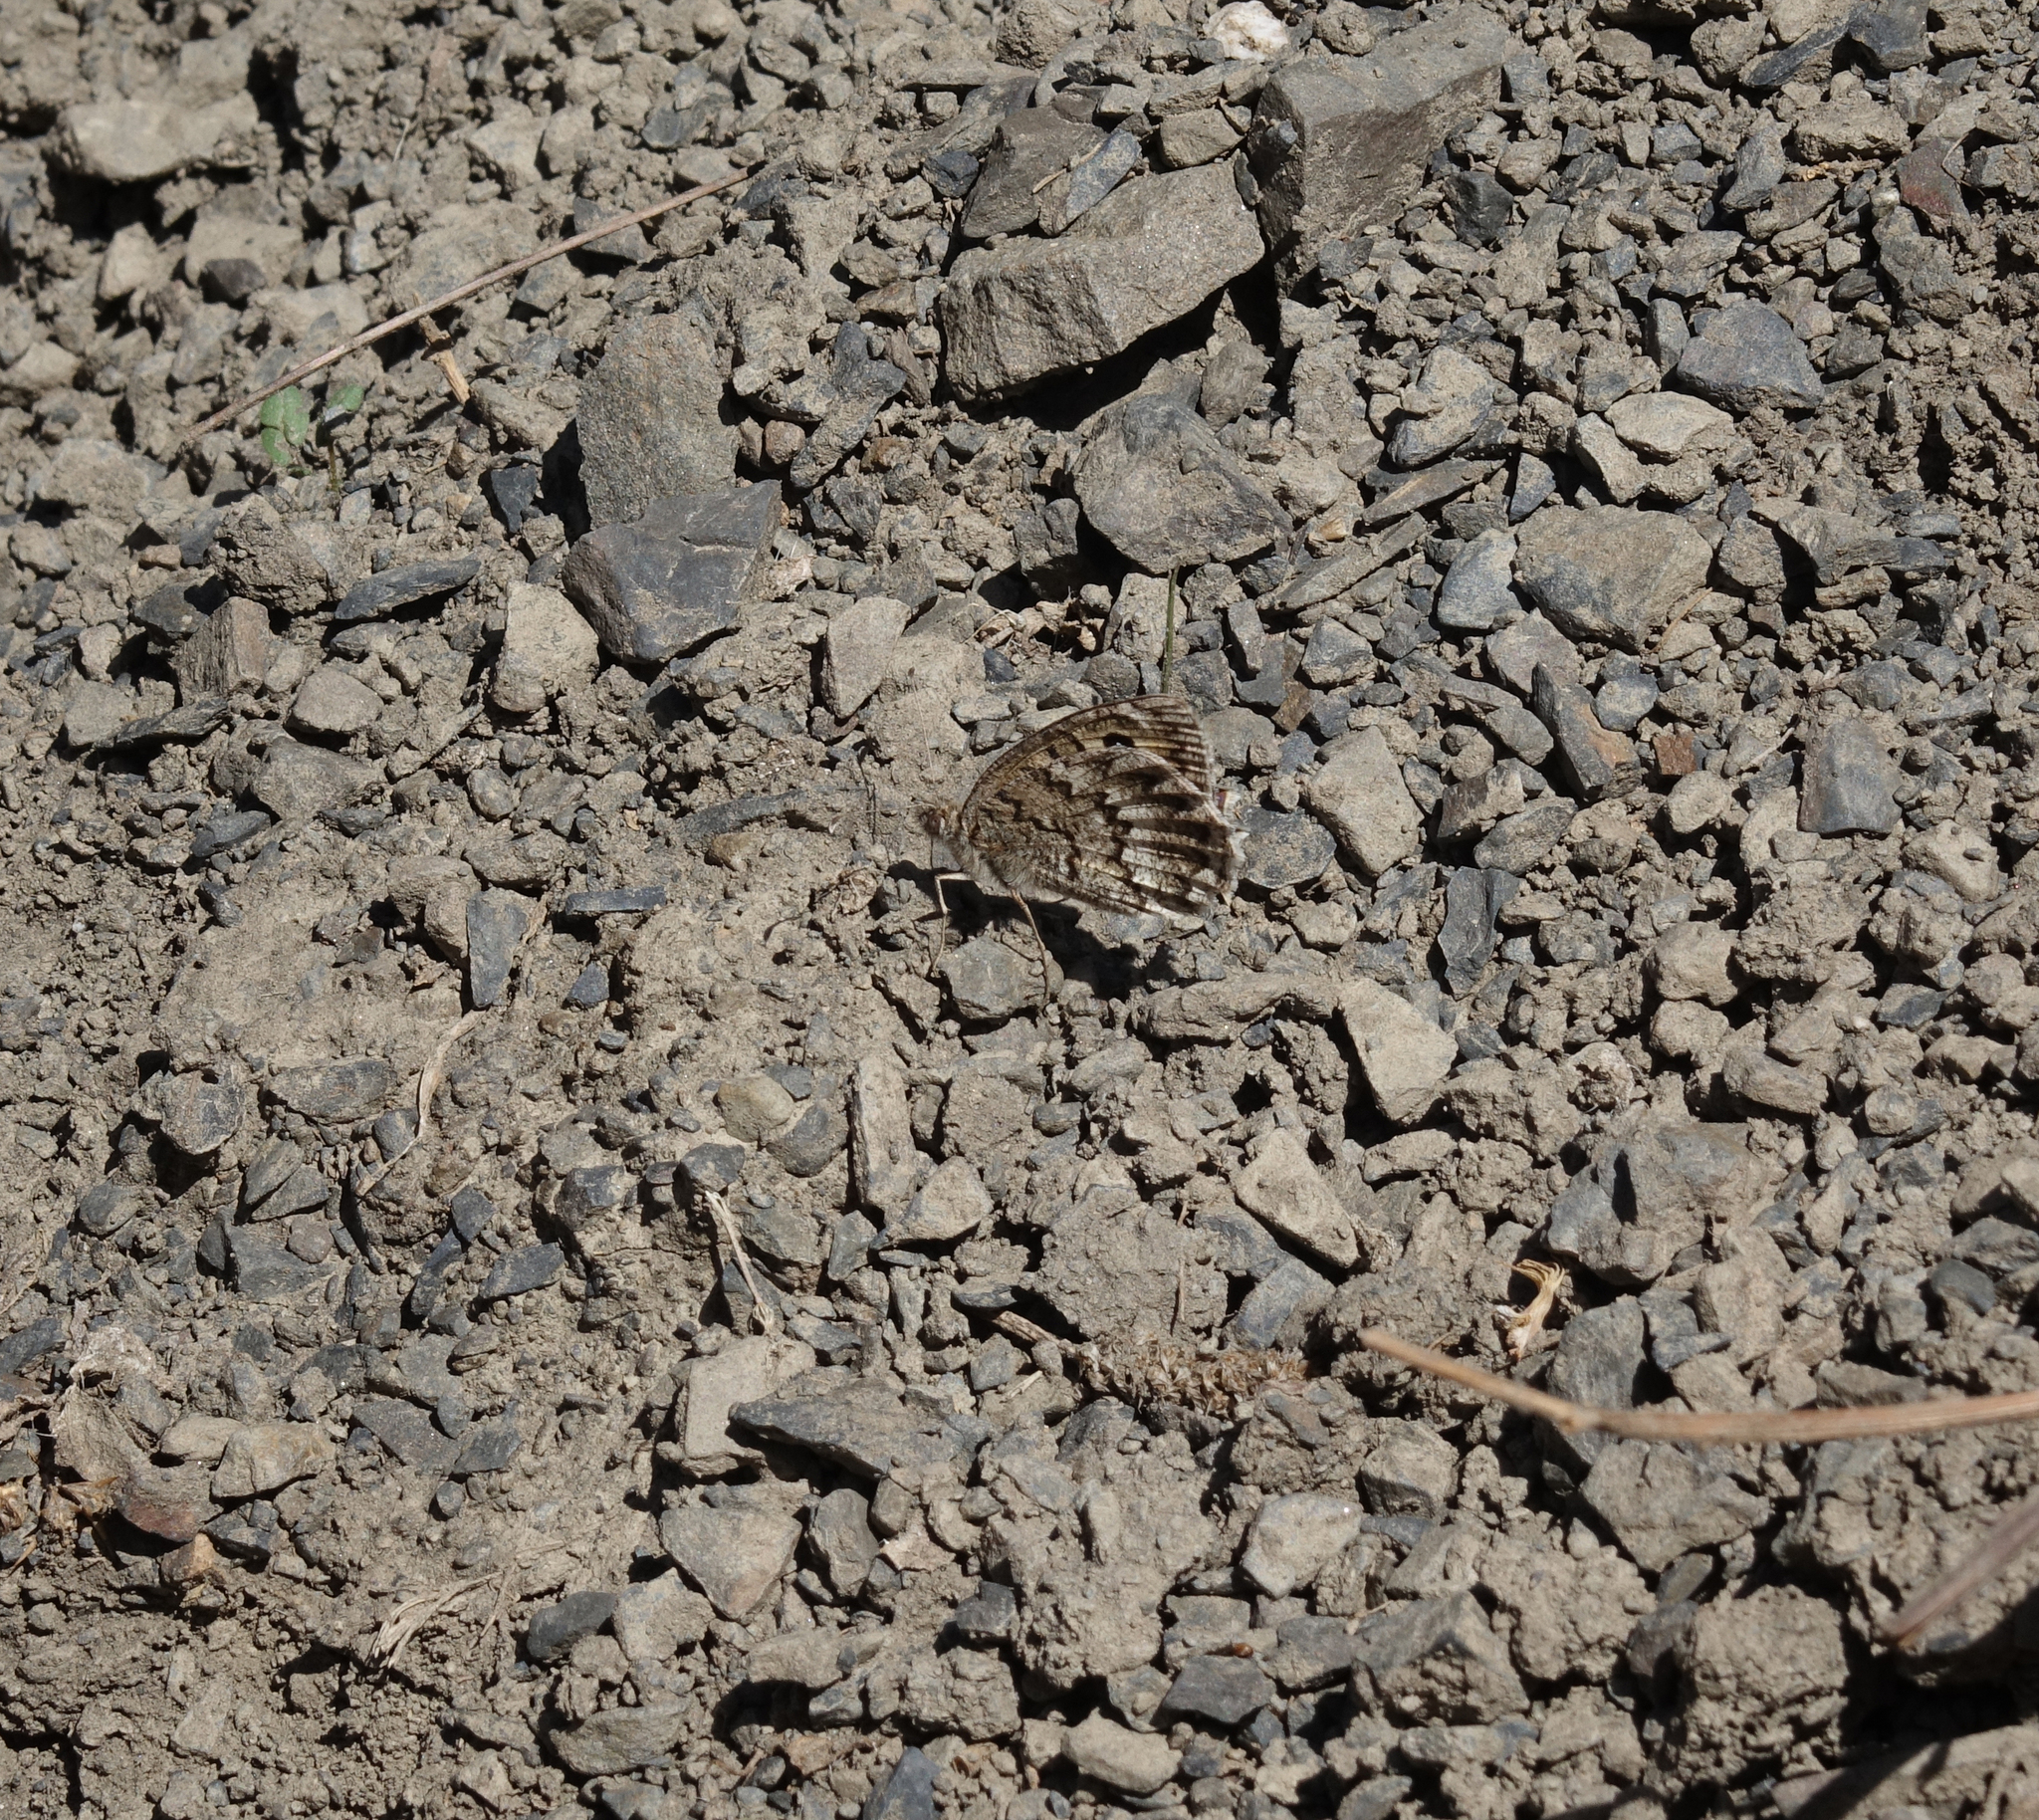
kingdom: Animalia
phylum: Arthropoda
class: Insecta
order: Lepidoptera
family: Nymphalidae
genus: Pseudochazara
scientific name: Pseudochazara daghestana
